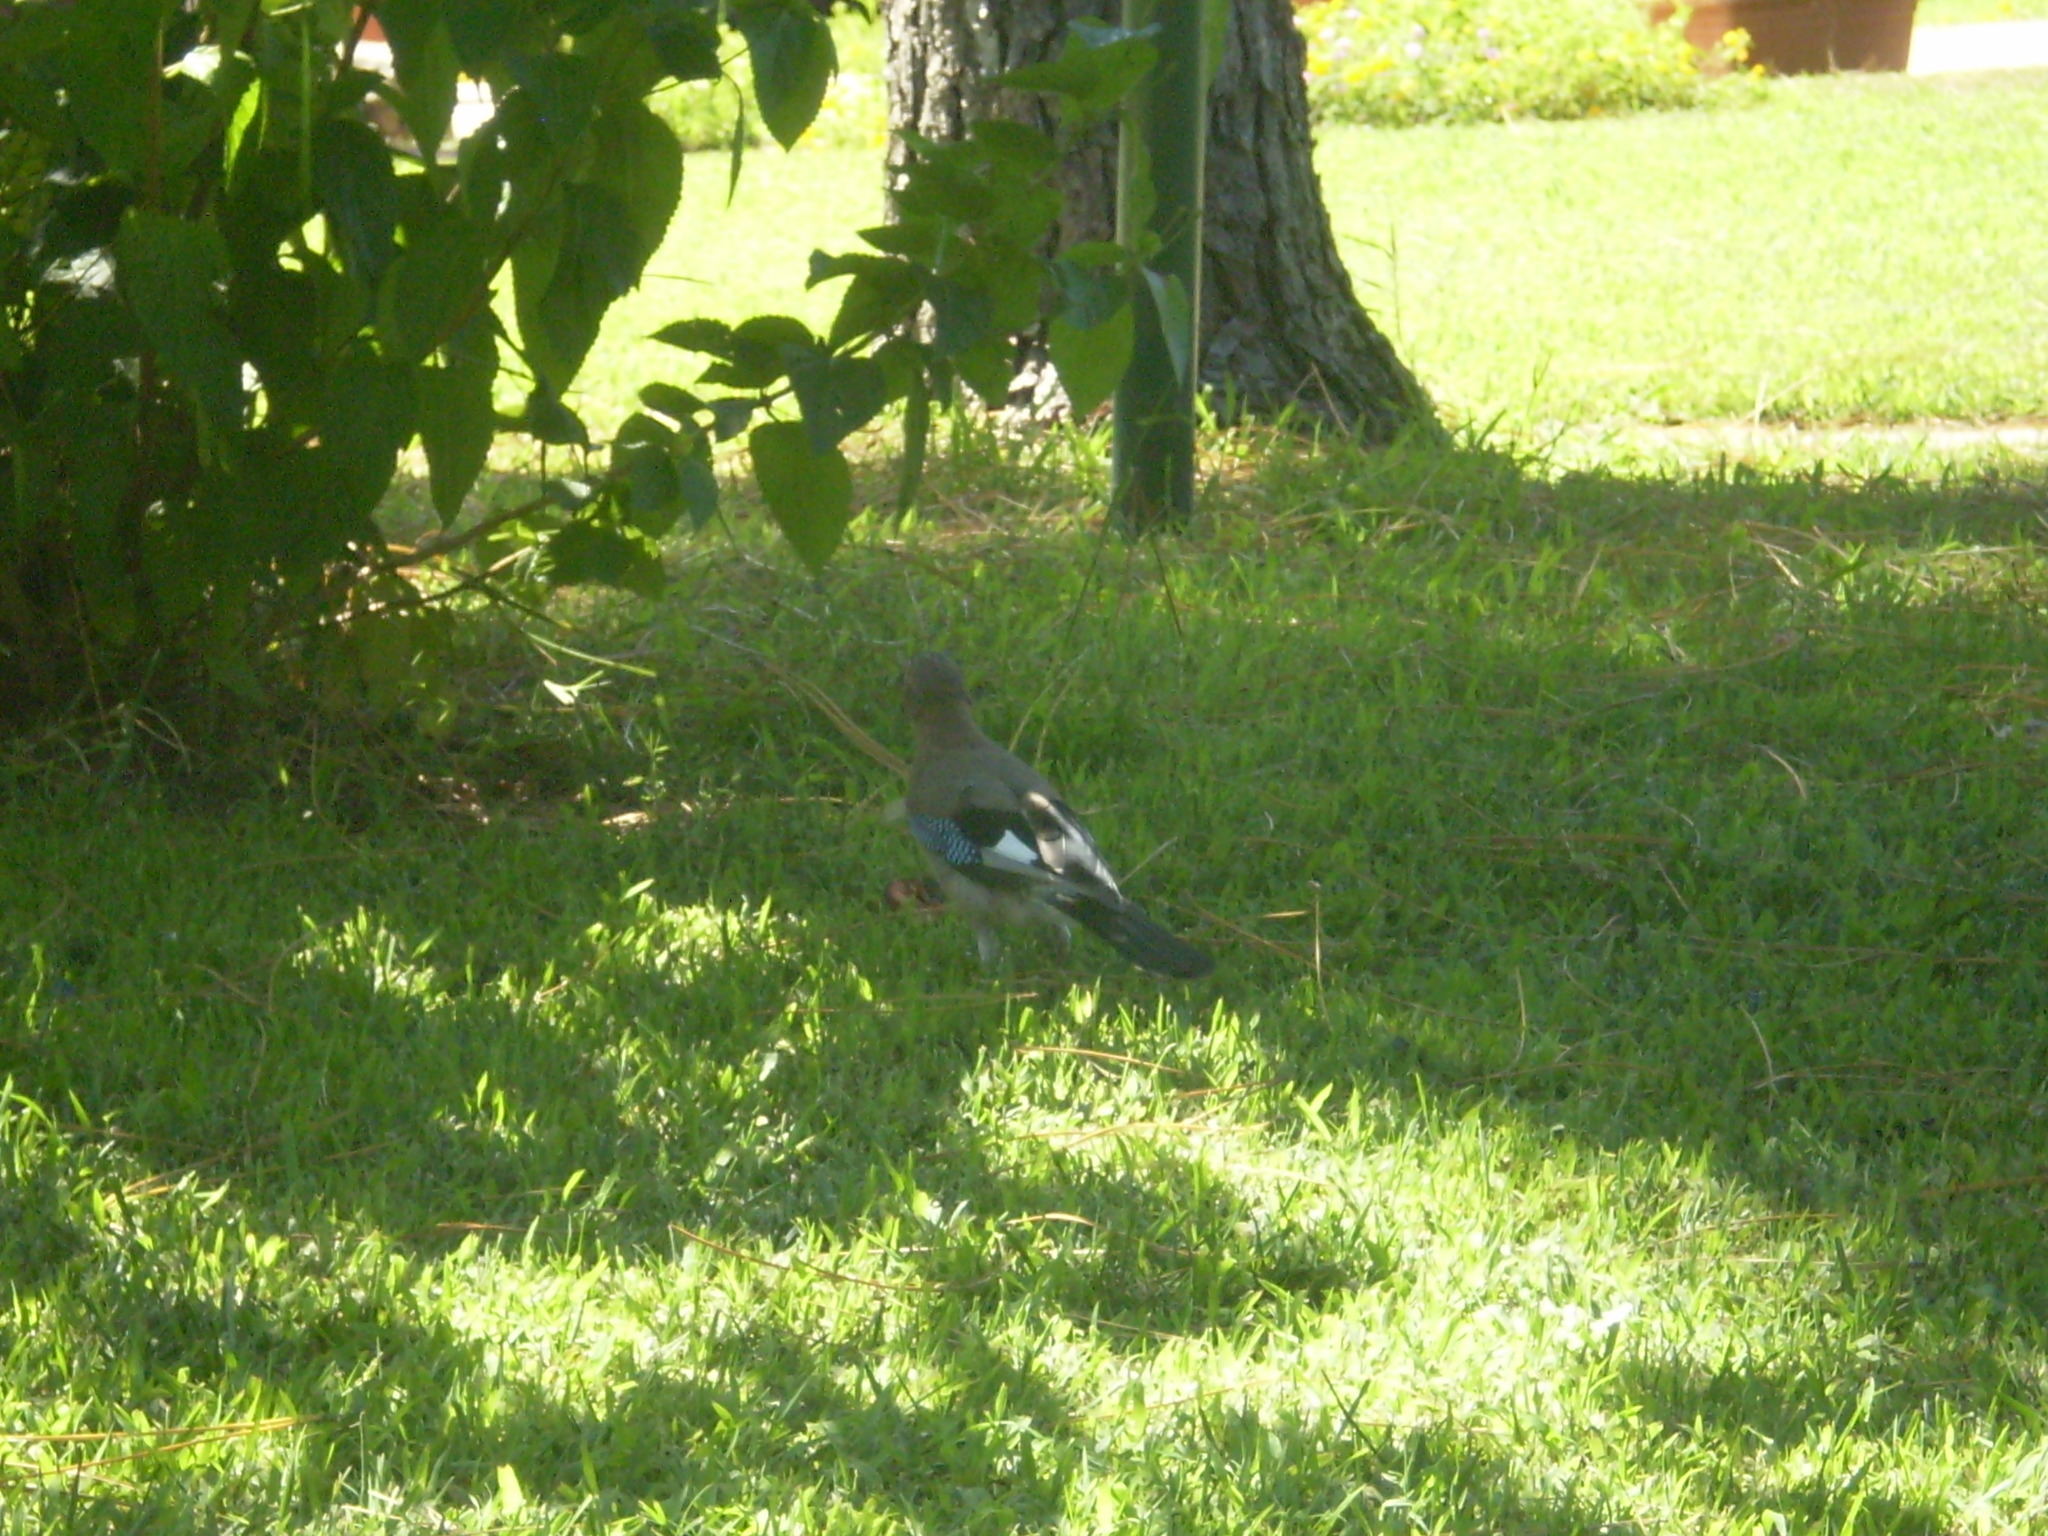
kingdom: Animalia
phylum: Chordata
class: Aves
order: Passeriformes
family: Corvidae
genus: Garrulus
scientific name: Garrulus glandarius
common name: Eurasian jay
